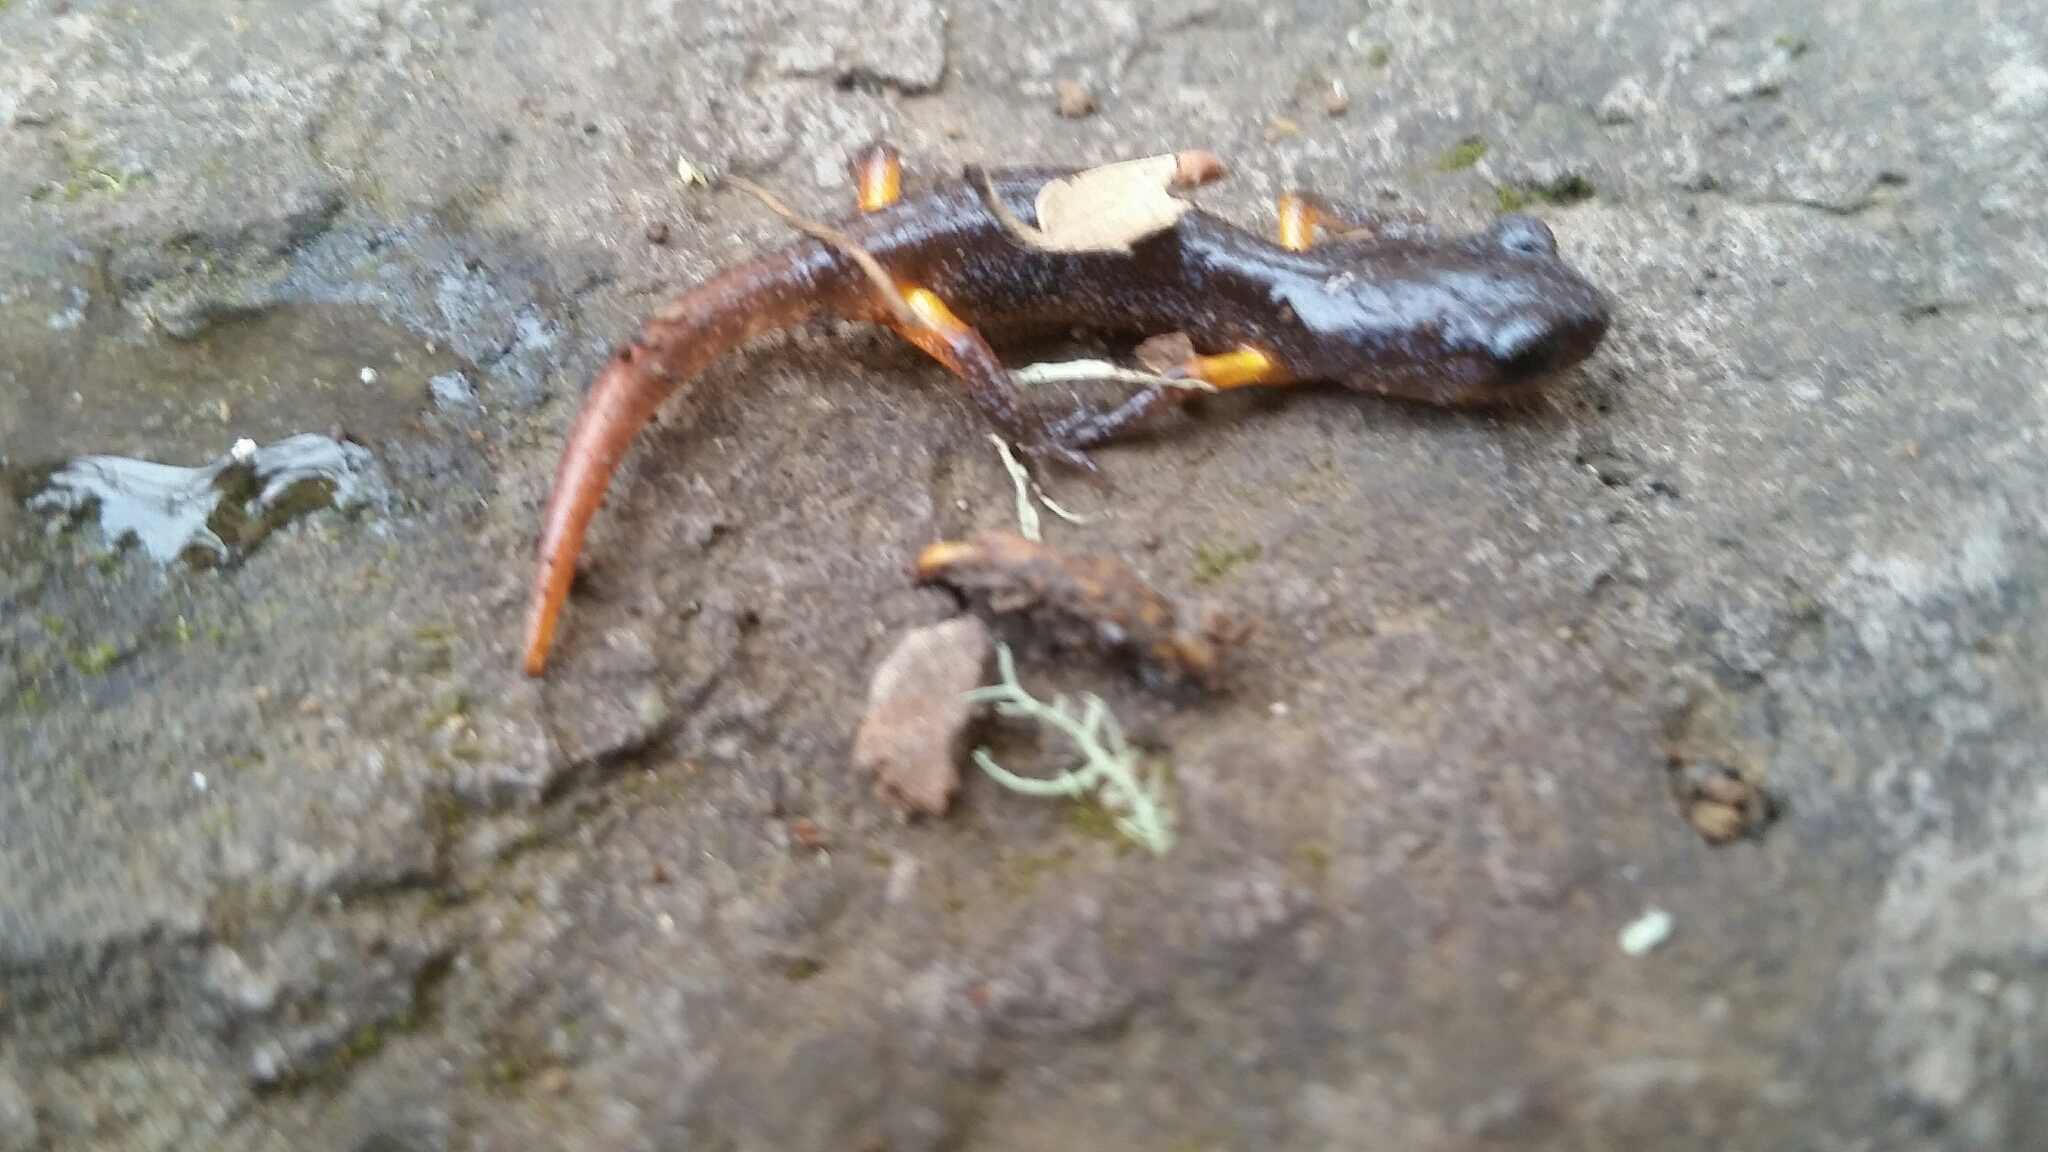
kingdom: Animalia
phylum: Chordata
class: Amphibia
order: Caudata
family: Plethodontidae
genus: Ensatina
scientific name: Ensatina eschscholtzii
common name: Ensatina
